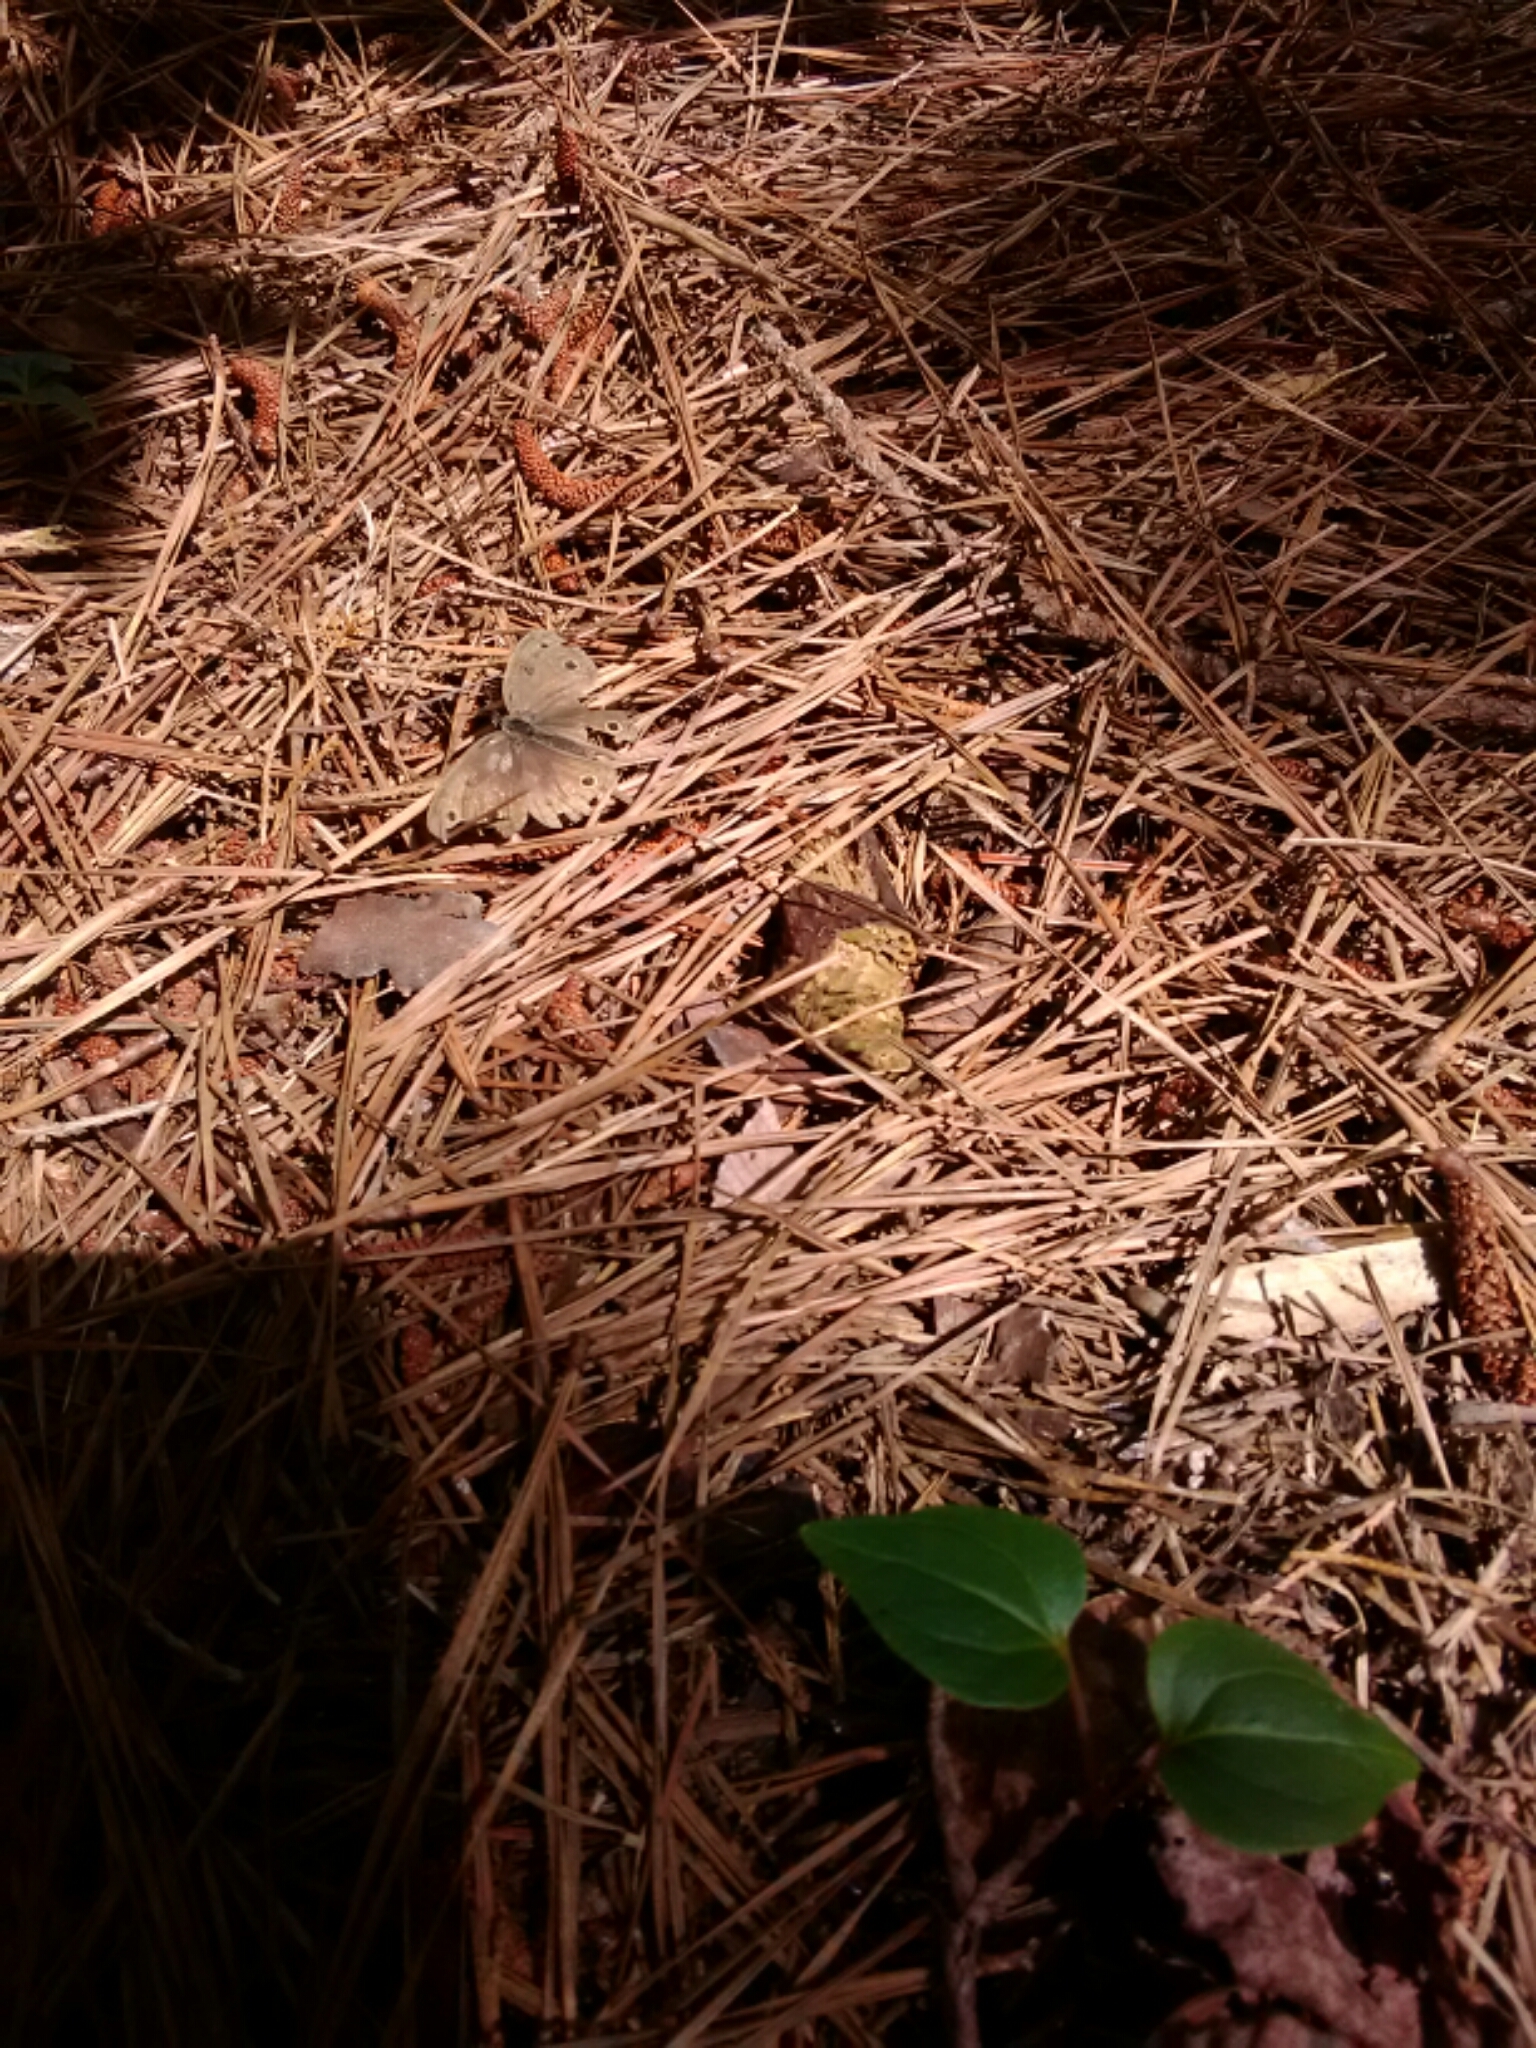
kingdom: Animalia
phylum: Arthropoda
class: Insecta
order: Lepidoptera
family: Nymphalidae
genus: Euptychia
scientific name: Euptychia cymela
